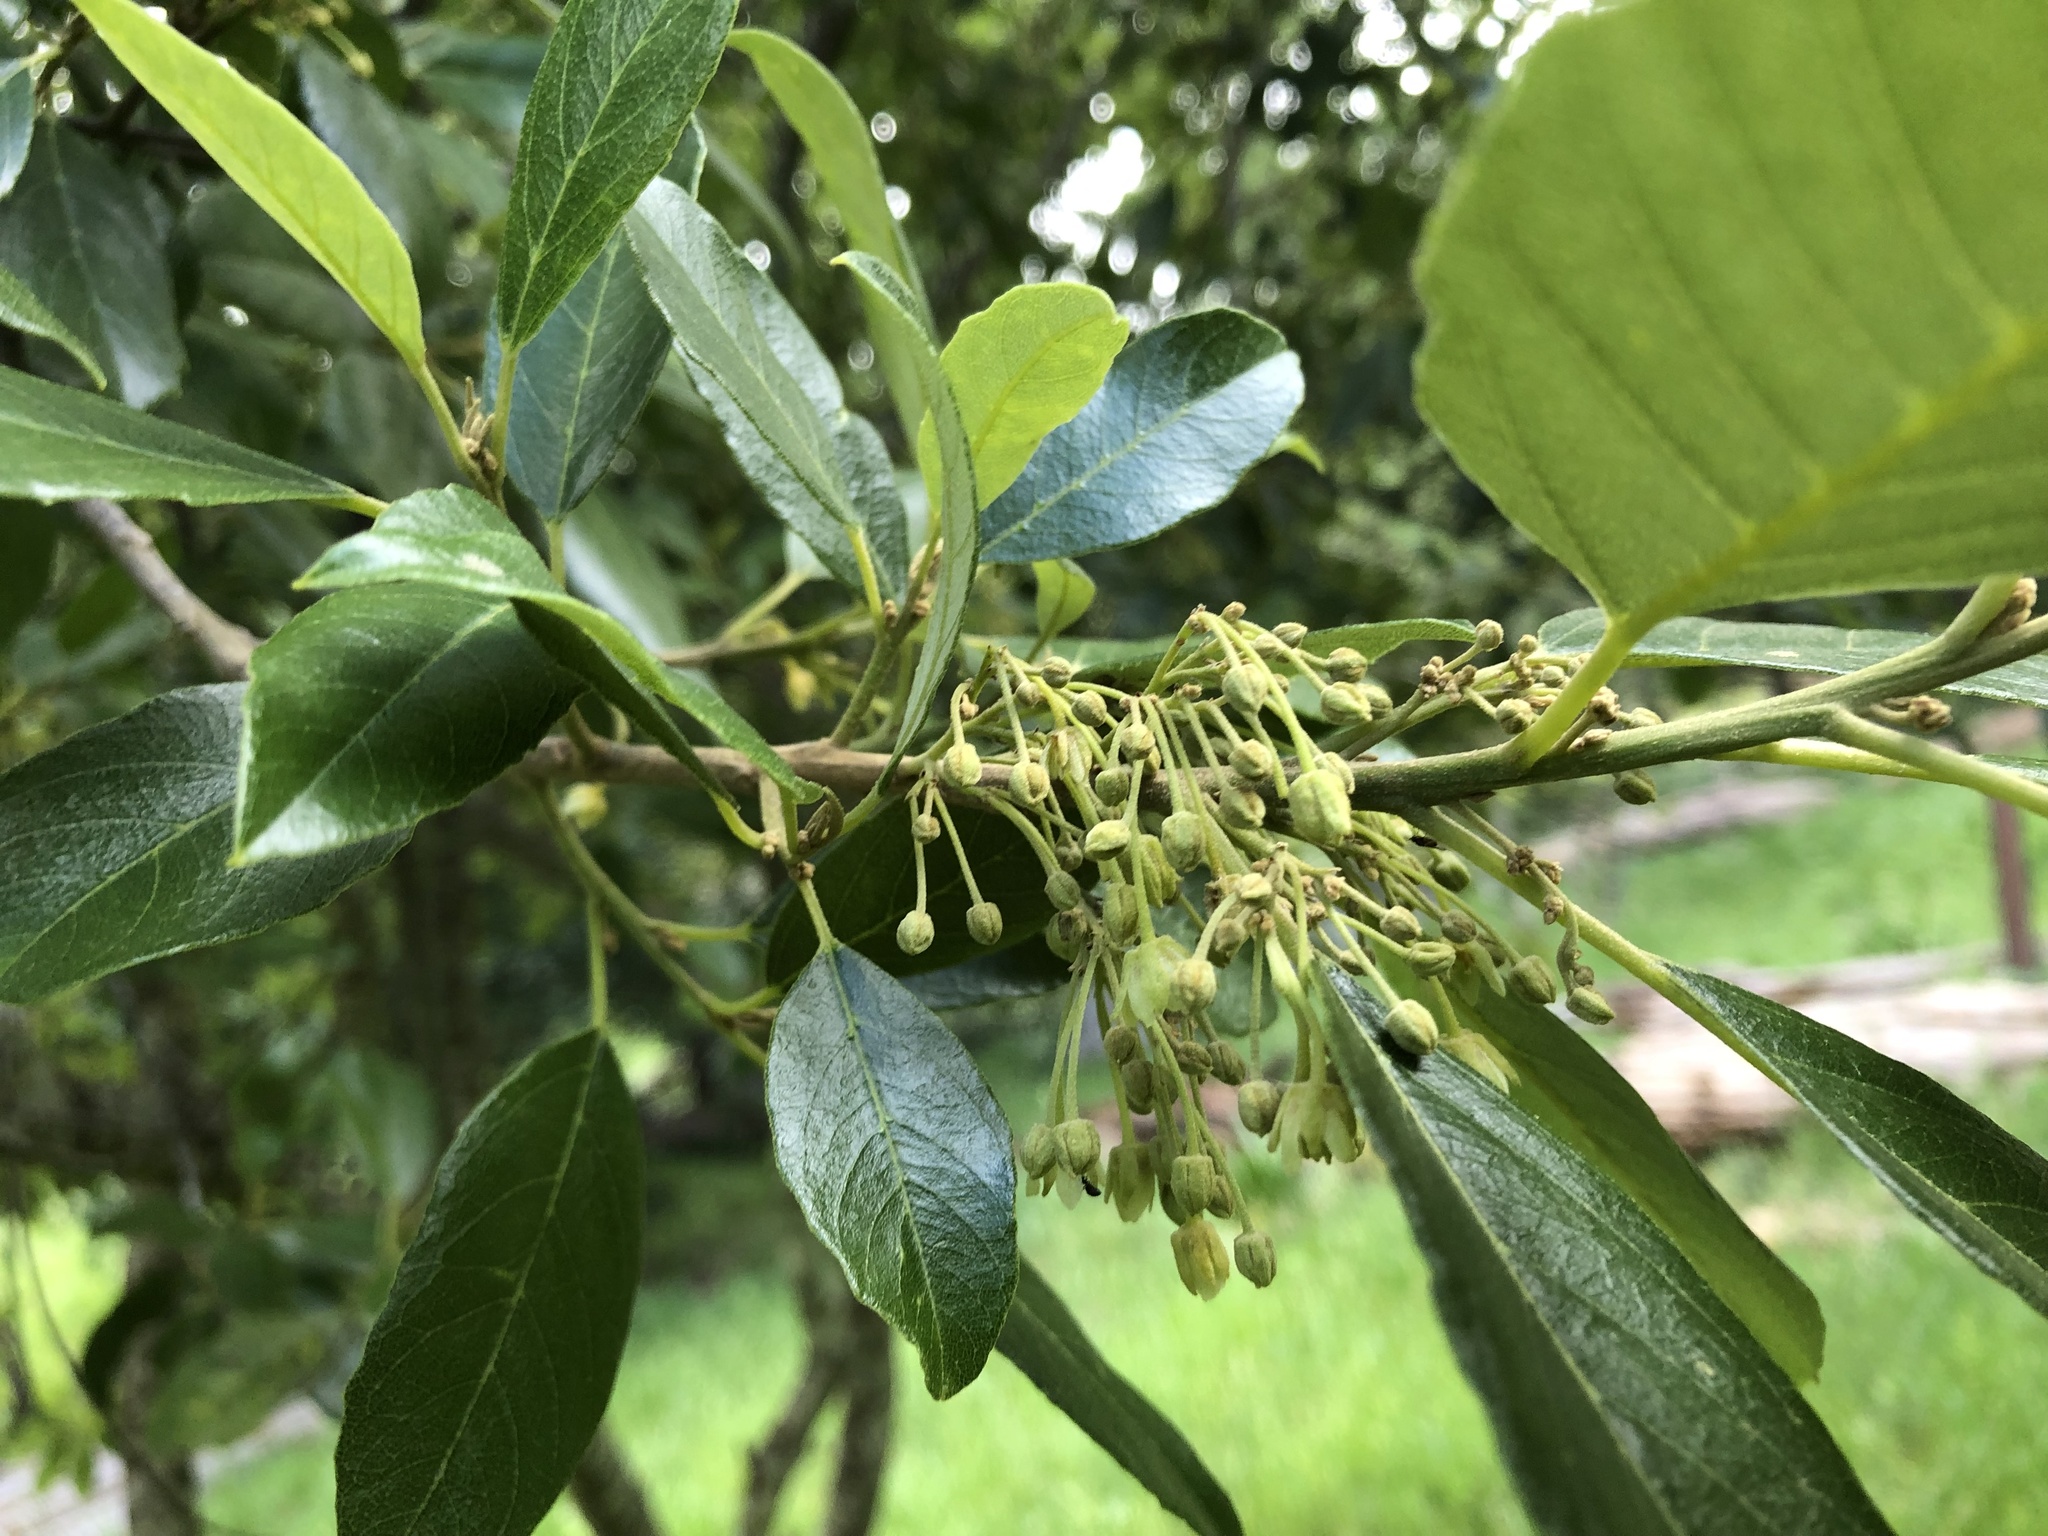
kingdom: Plantae
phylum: Tracheophyta
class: Magnoliopsida
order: Malpighiales
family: Achariaceae
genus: Kiggelaria
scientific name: Kiggelaria africana
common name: Wild peach
